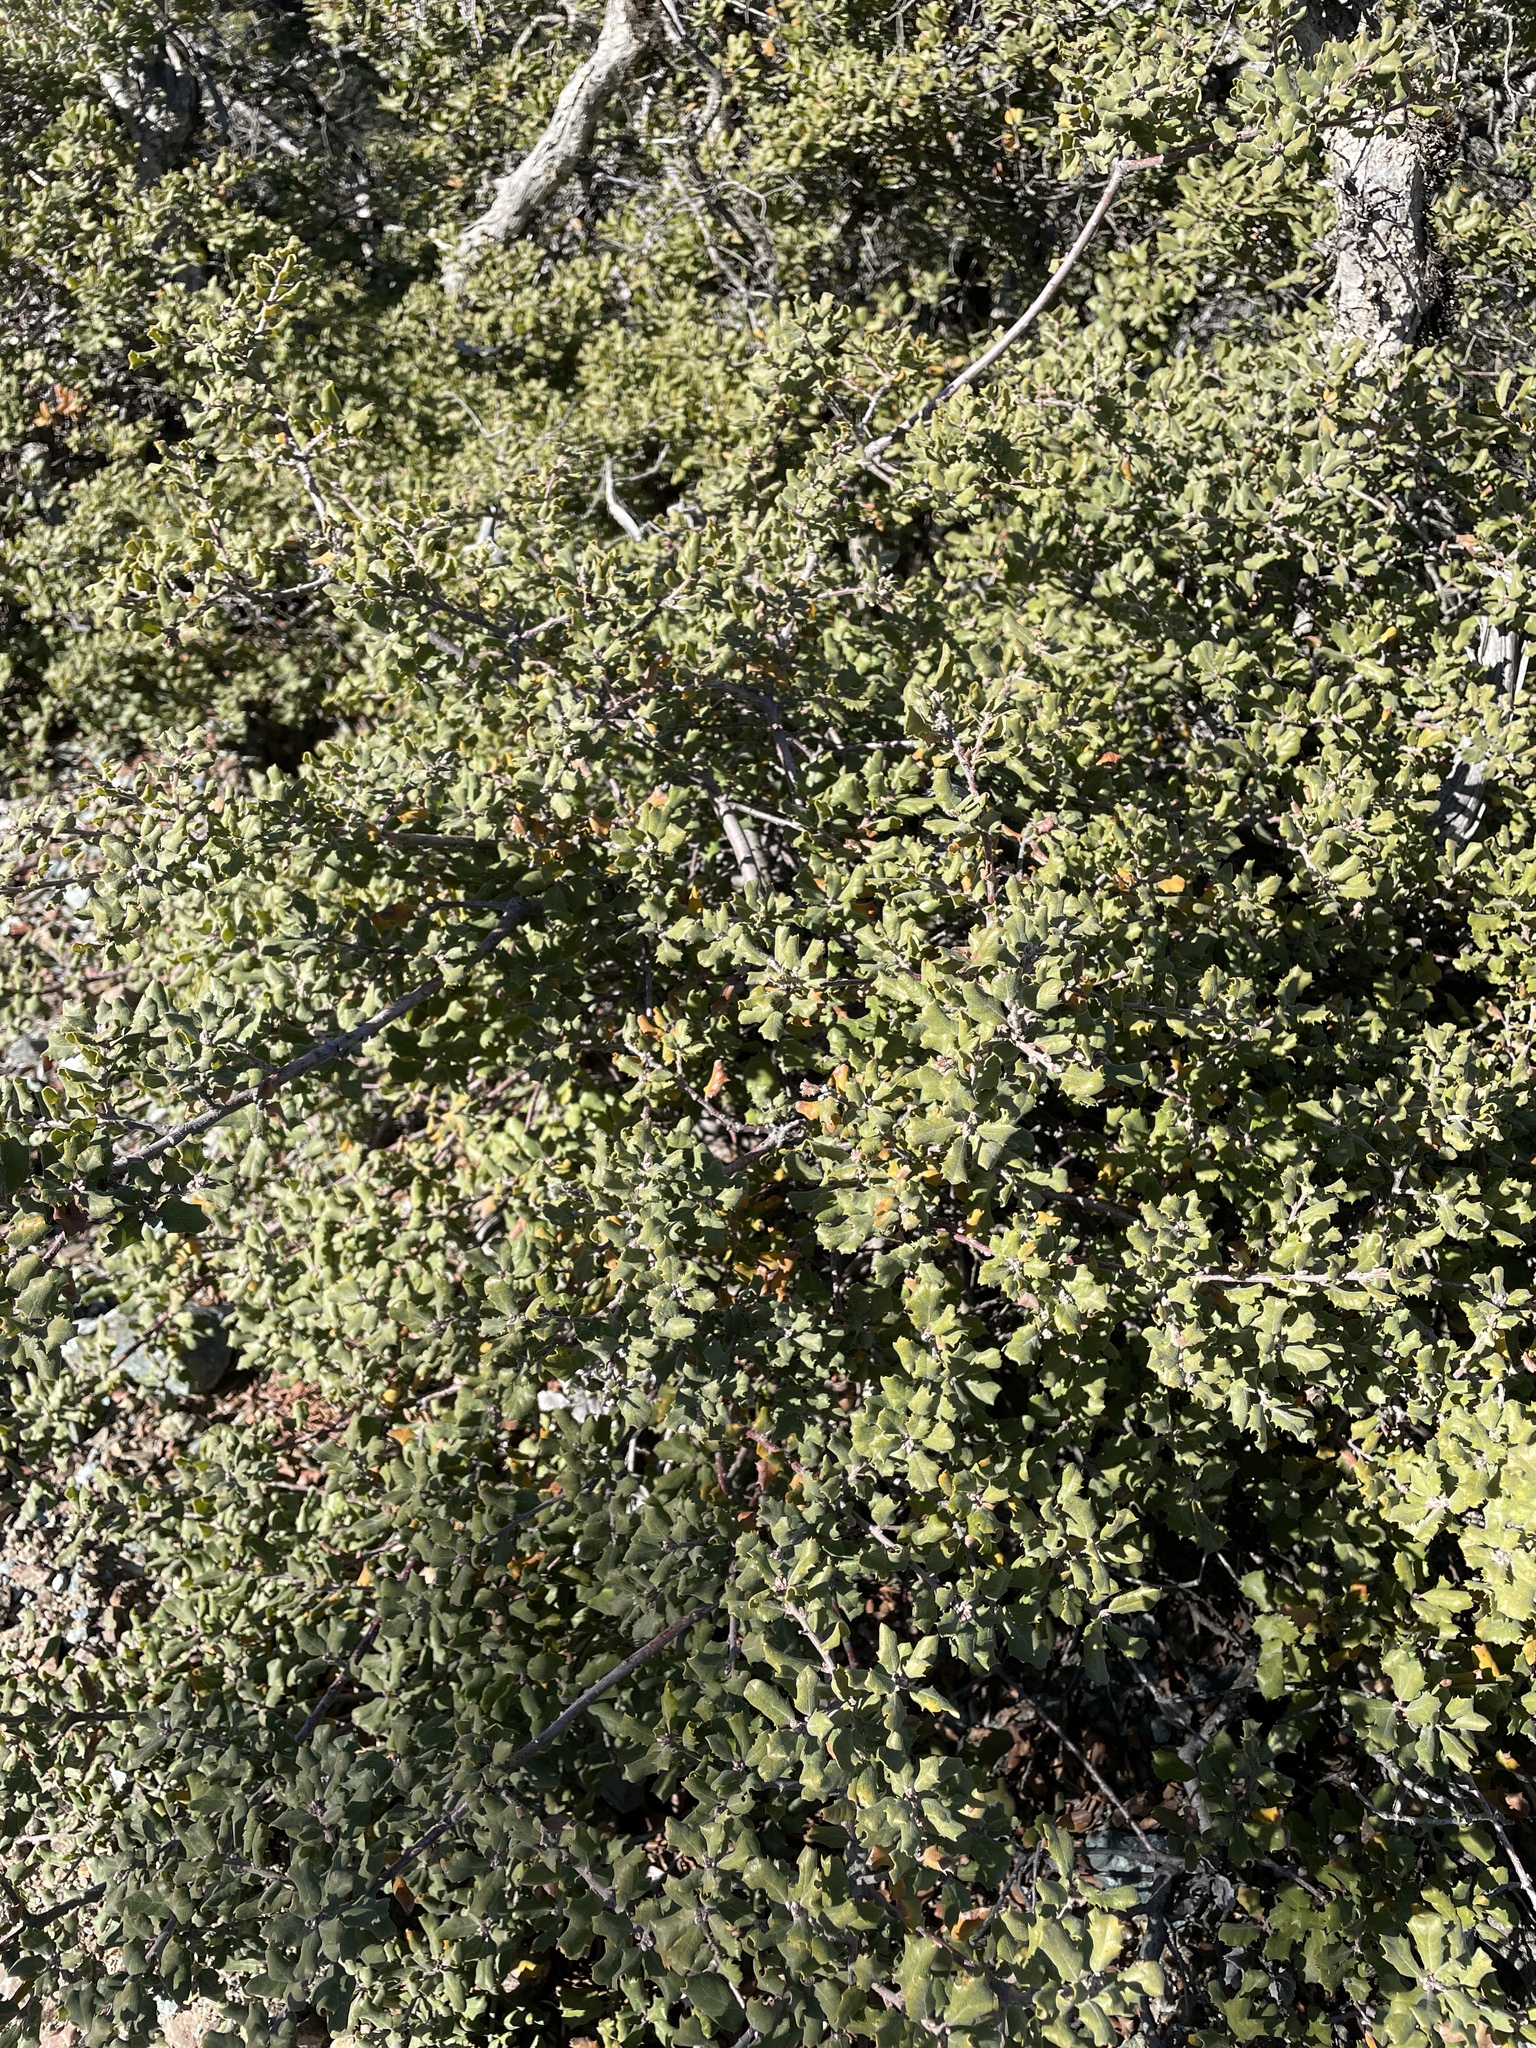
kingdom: Plantae
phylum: Tracheophyta
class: Magnoliopsida
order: Fagales
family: Fagaceae
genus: Quercus
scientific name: Quercus durata
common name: Leather oak
